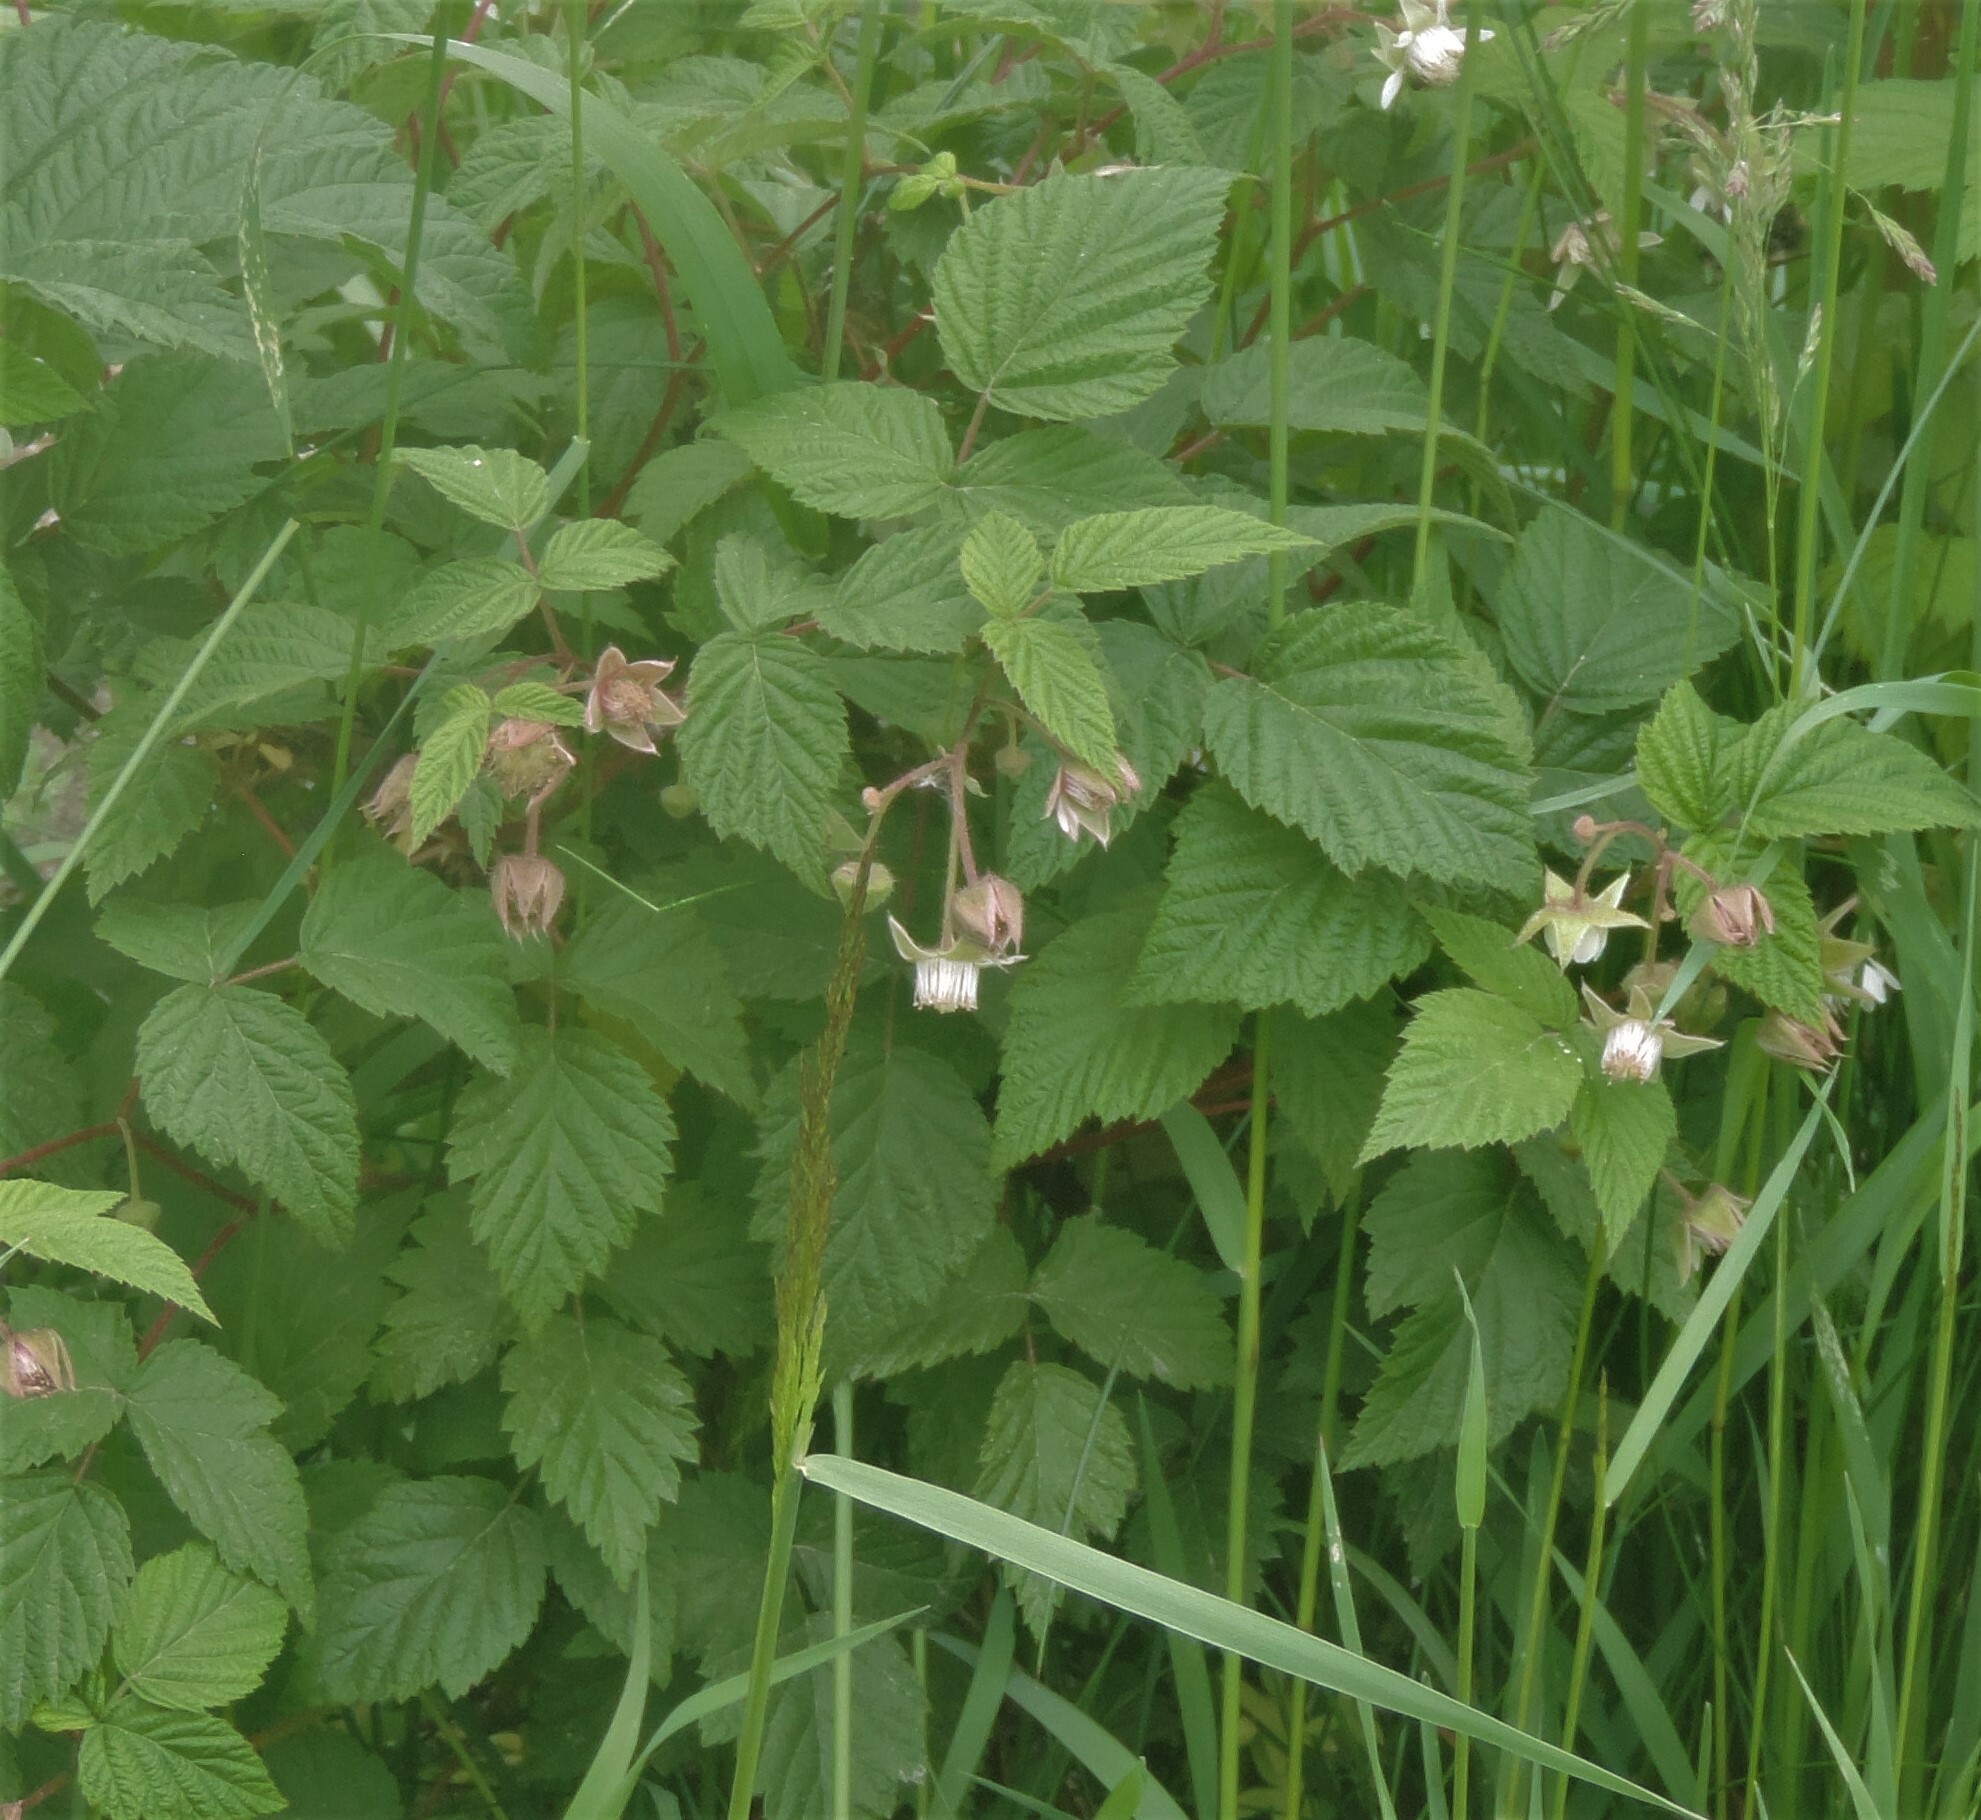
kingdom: Plantae
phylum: Tracheophyta
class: Magnoliopsida
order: Rosales
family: Rosaceae
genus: Rubus
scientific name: Rubus idaeus
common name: Raspberry
